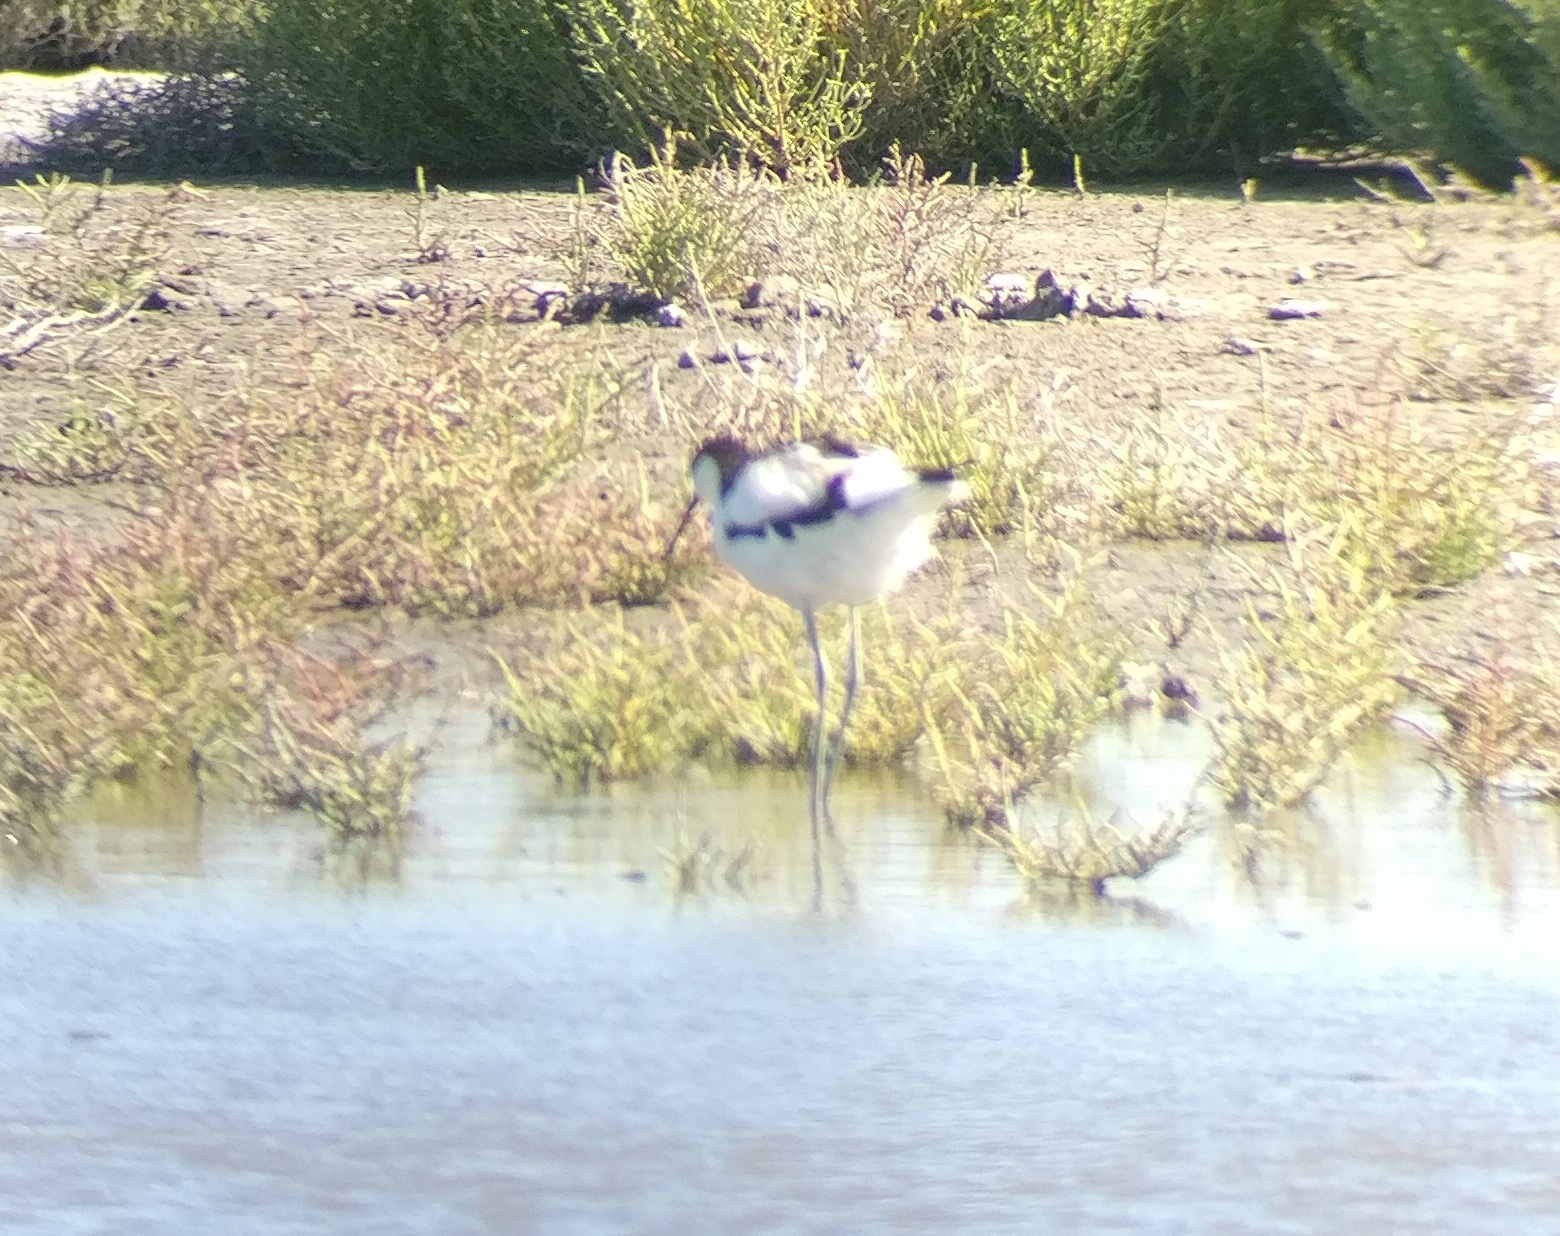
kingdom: Animalia
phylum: Chordata
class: Aves
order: Charadriiformes
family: Recurvirostridae
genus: Recurvirostra
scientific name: Recurvirostra avosetta
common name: Pied avocet
